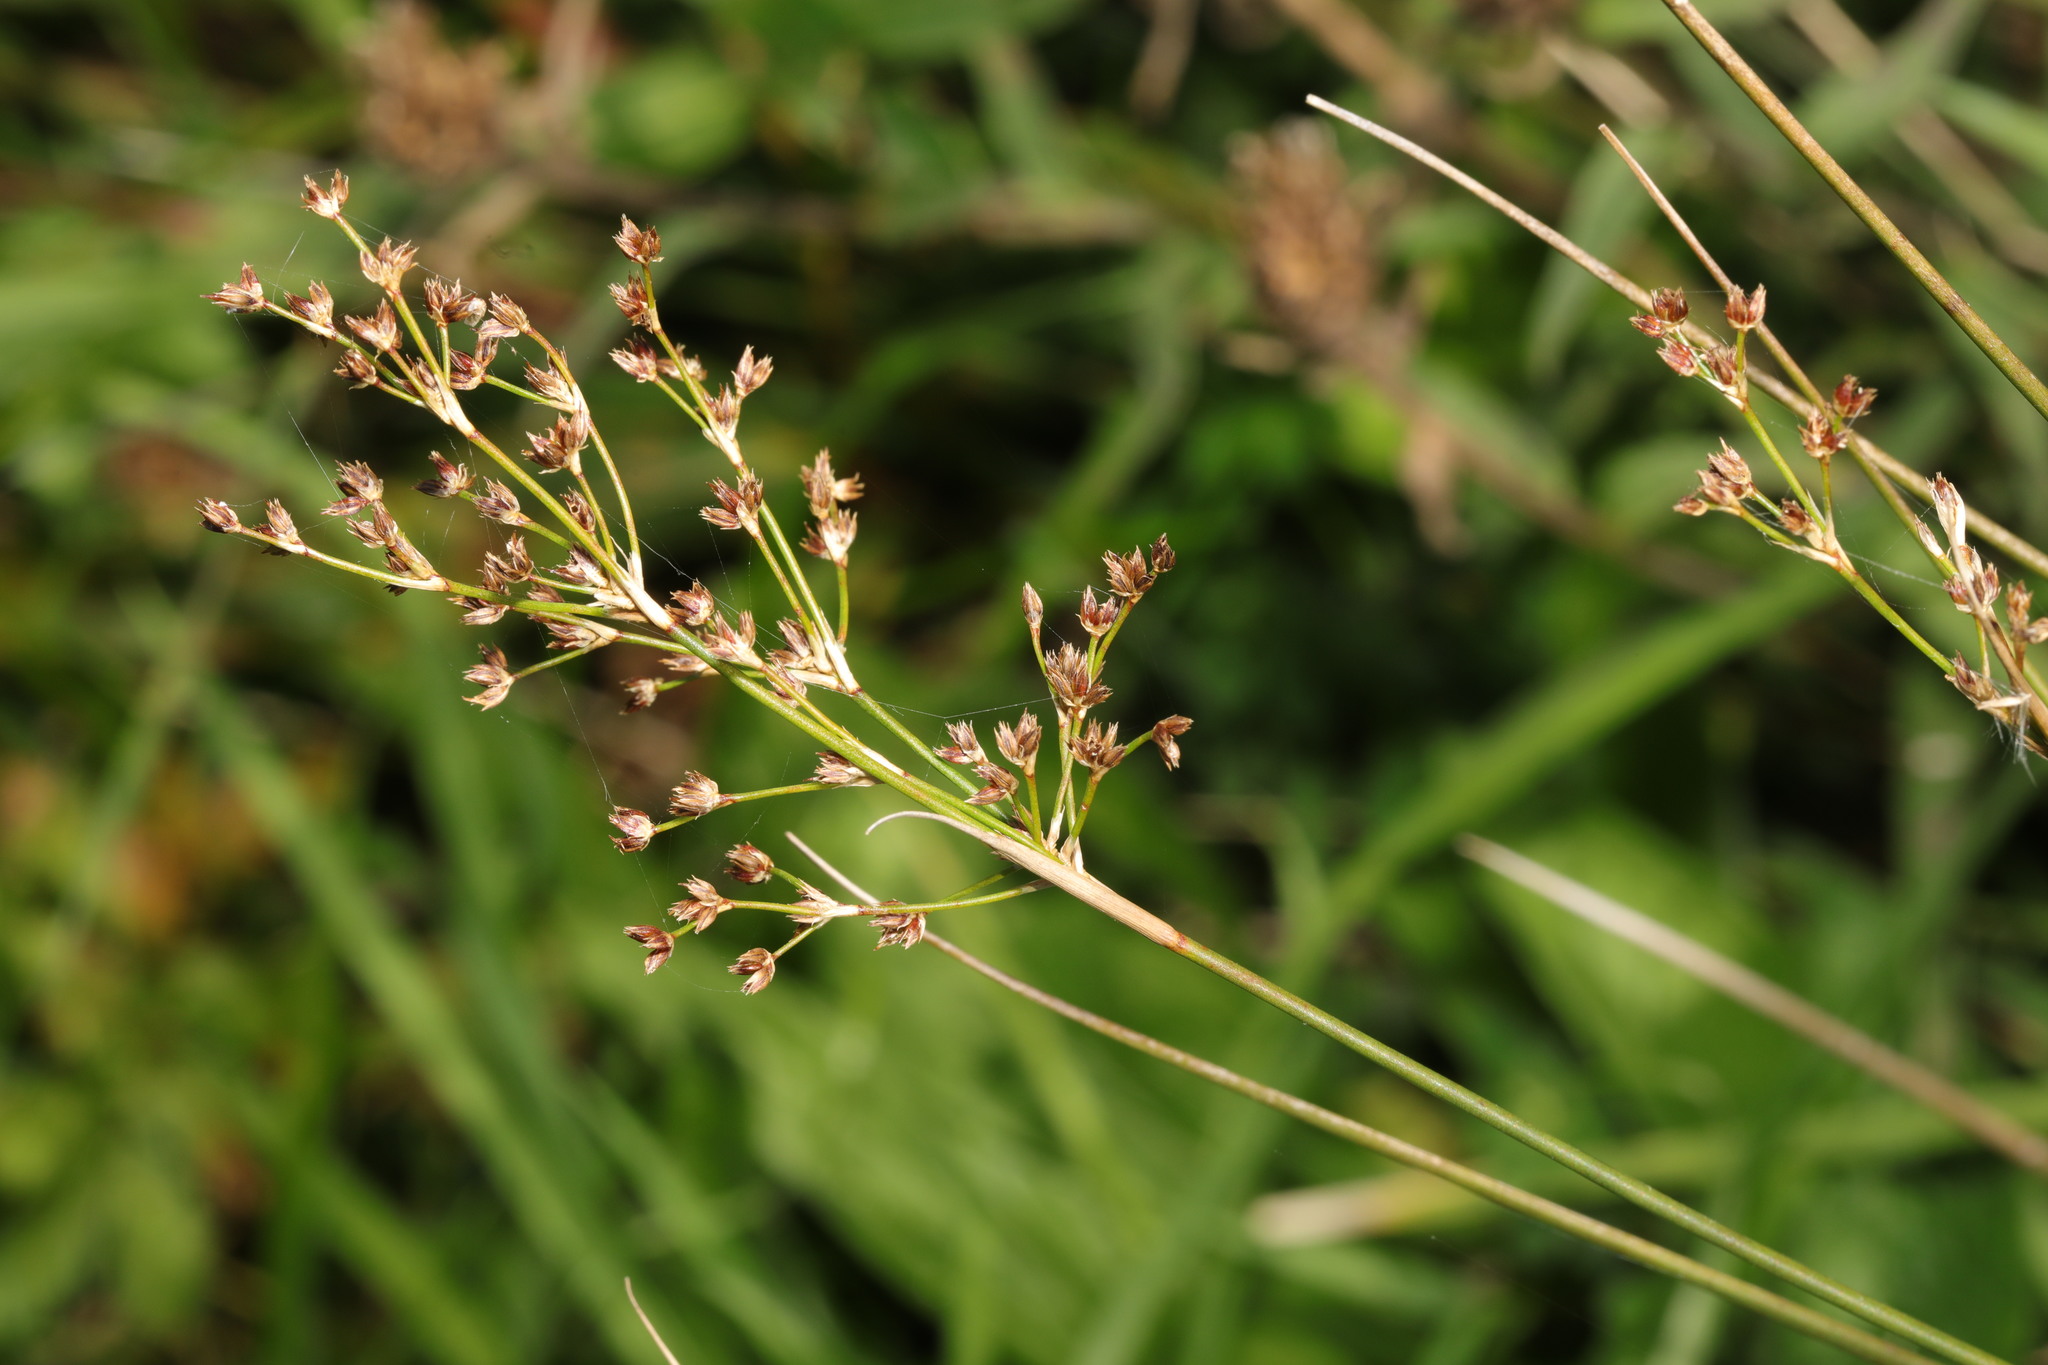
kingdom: Plantae
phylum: Tracheophyta
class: Liliopsida
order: Poales
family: Juncaceae
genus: Juncus
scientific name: Juncus acutiflorus
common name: Sharp-flowered rush
